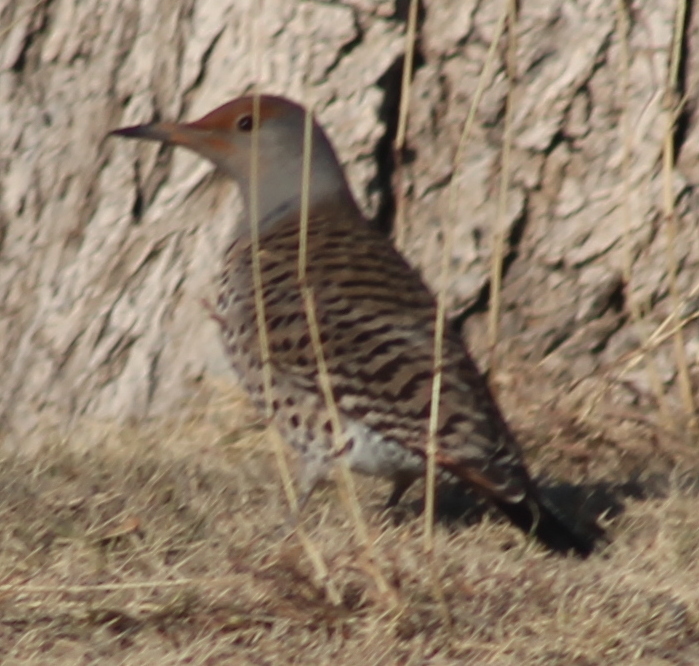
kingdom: Animalia
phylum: Chordata
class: Aves
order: Piciformes
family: Picidae
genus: Colaptes
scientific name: Colaptes auratus
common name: Northern flicker
